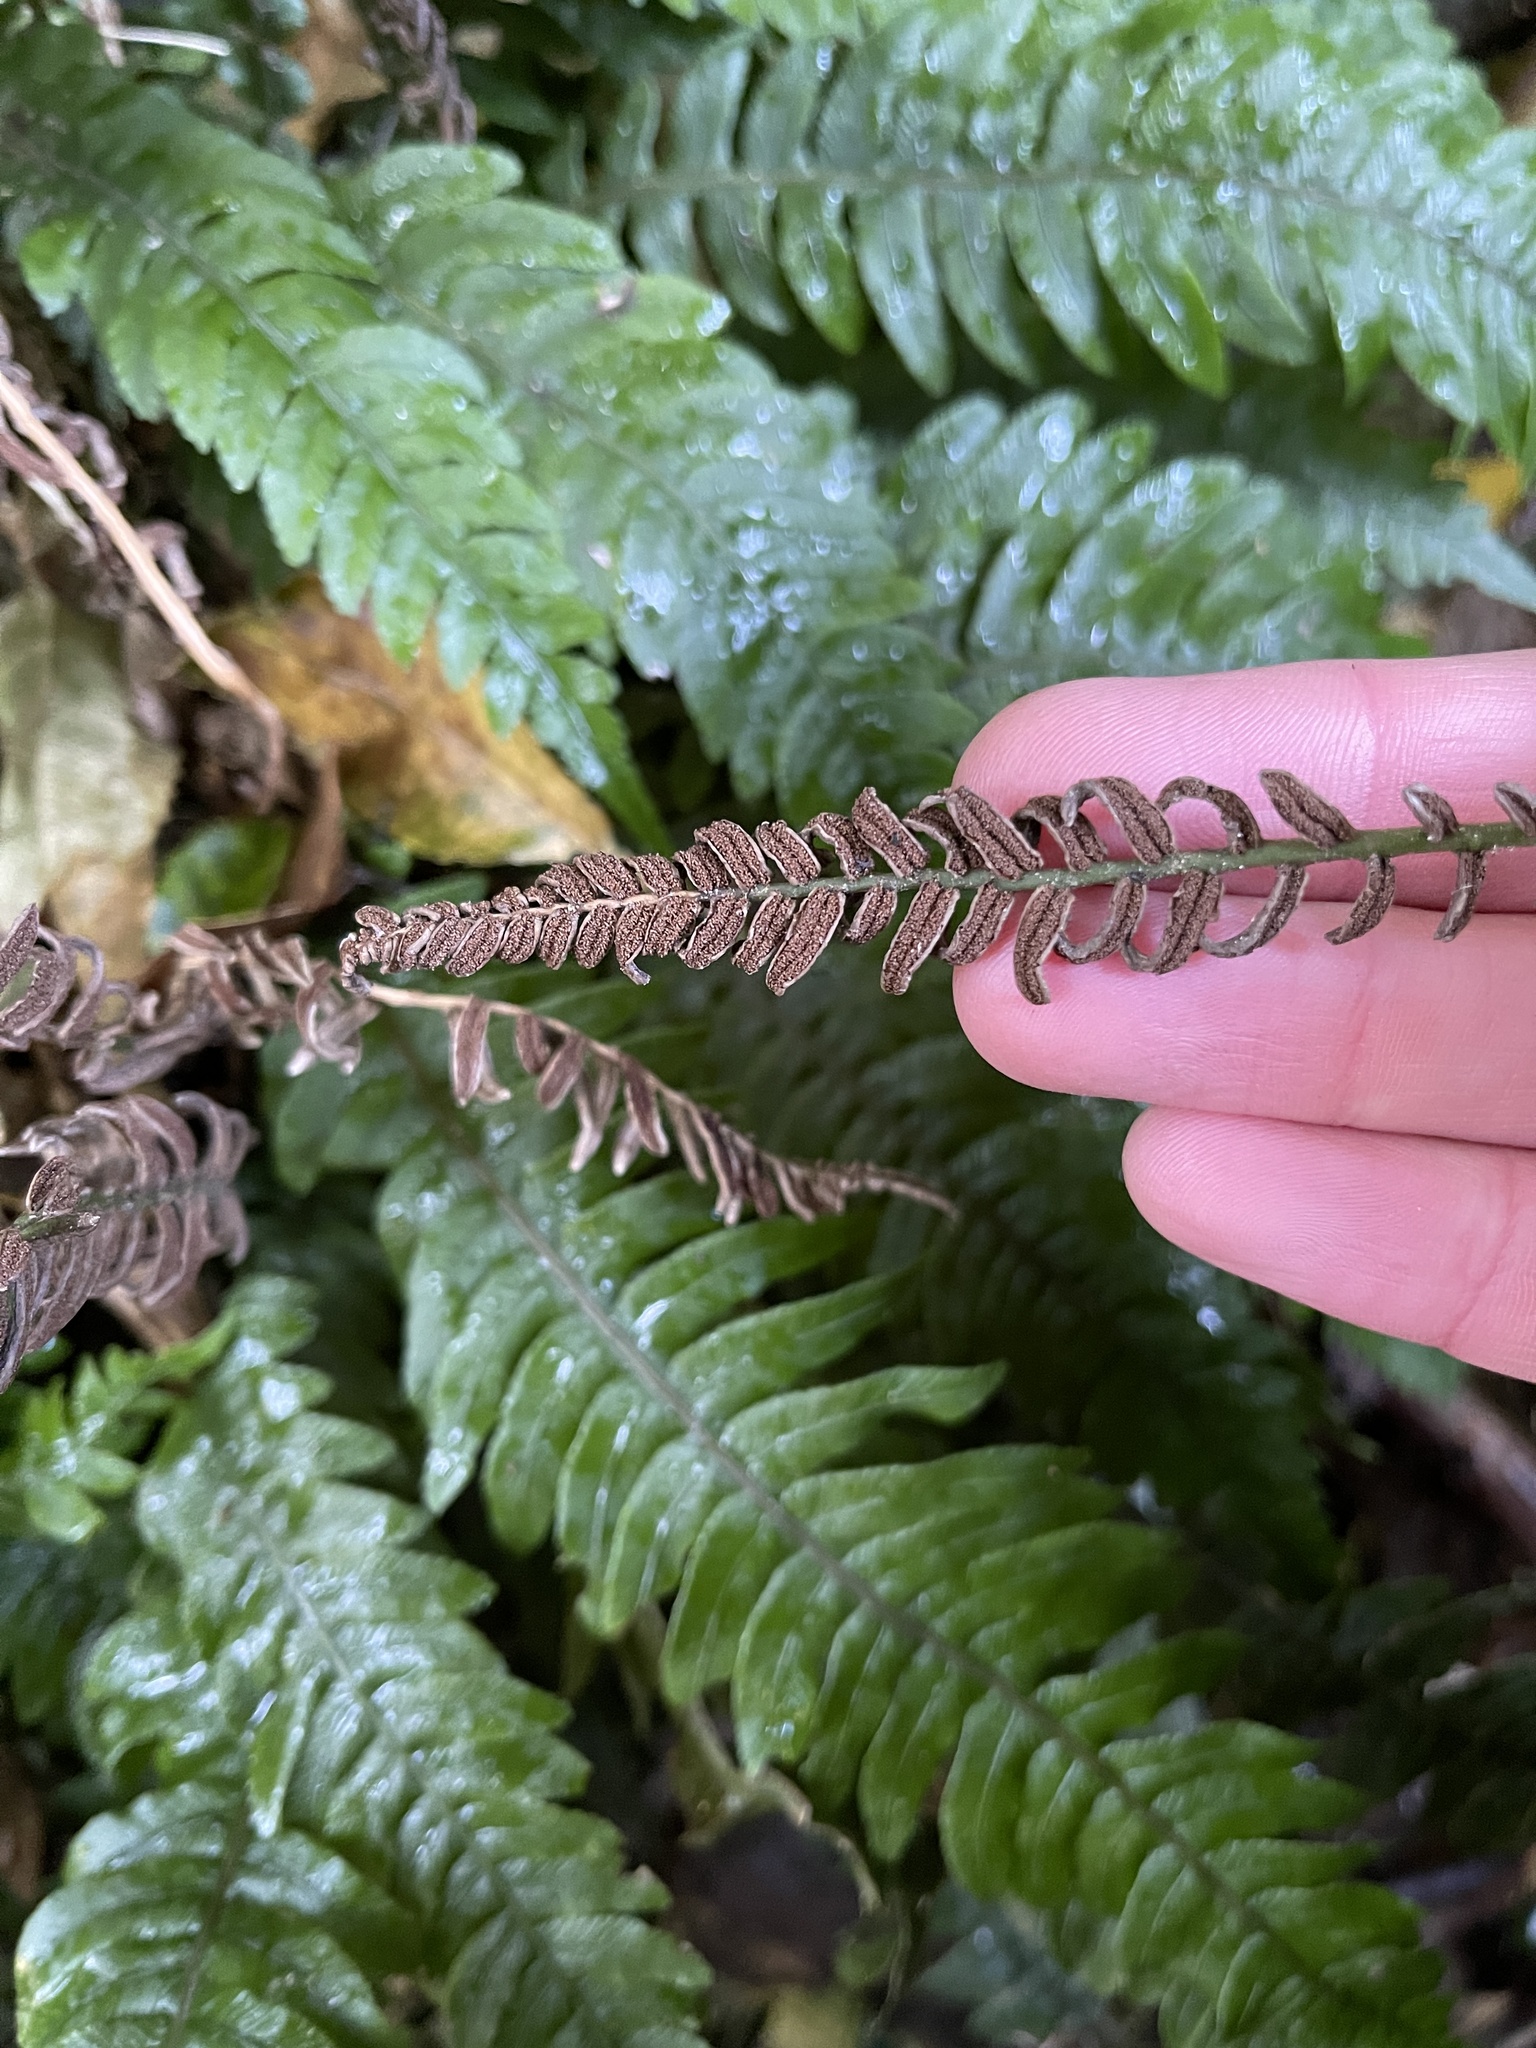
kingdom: Plantae
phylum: Tracheophyta
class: Polypodiopsida
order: Polypodiales
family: Blechnaceae
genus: Austroblechnum
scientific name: Austroblechnum lanceolatum
